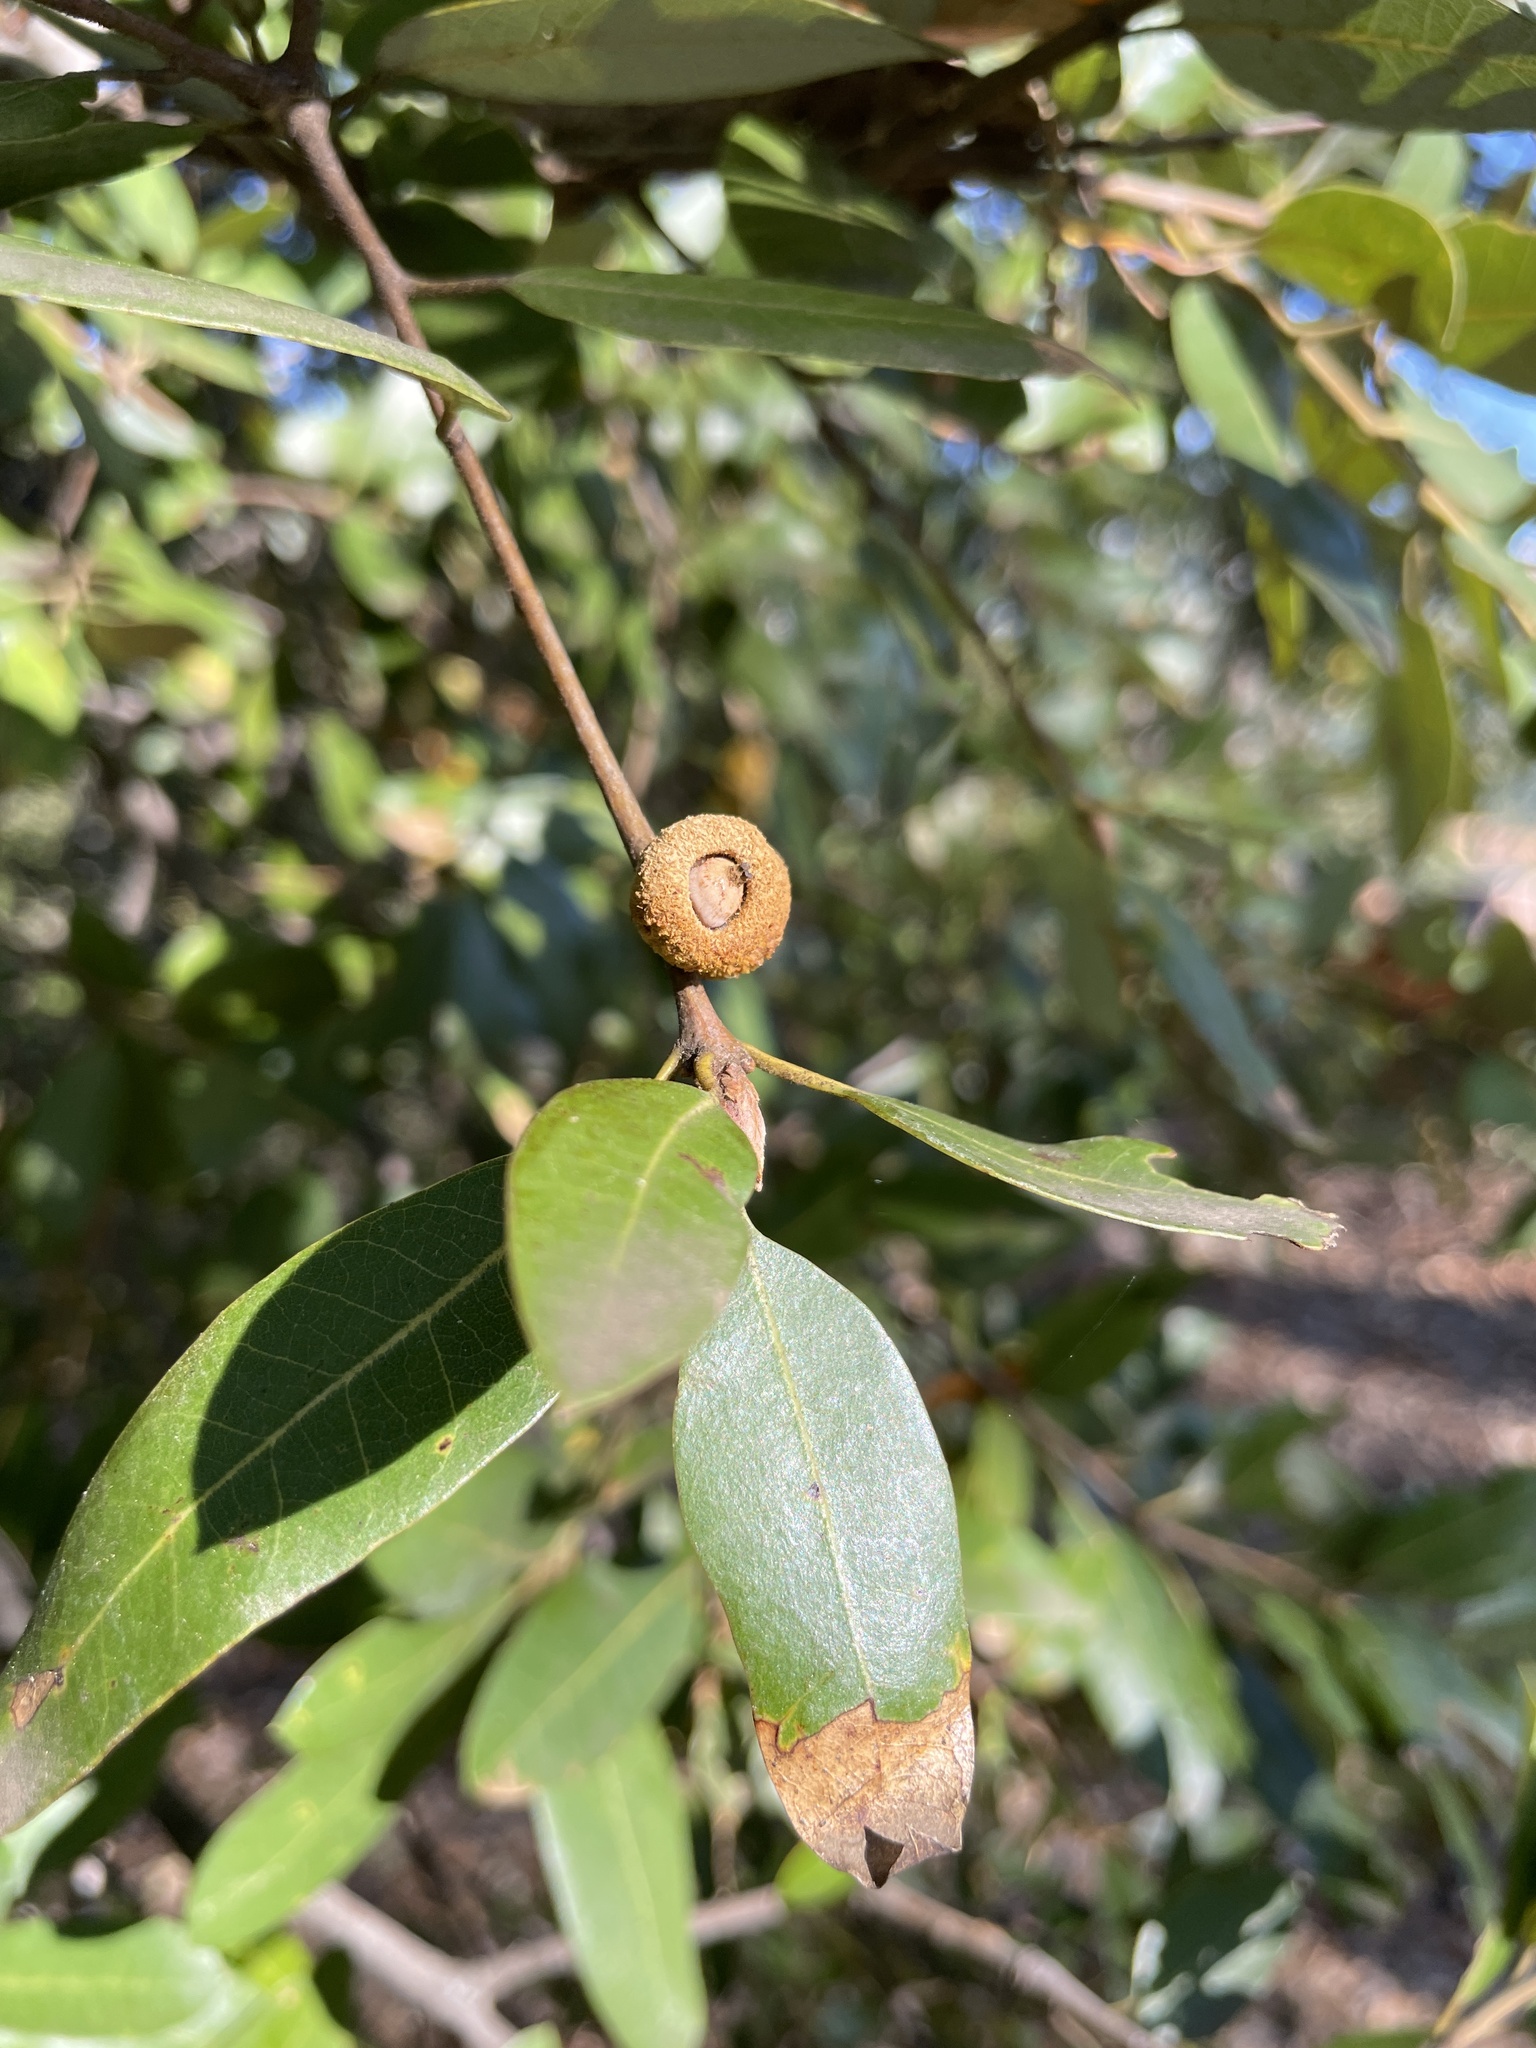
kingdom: Plantae
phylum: Tracheophyta
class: Magnoliopsida
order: Fagales
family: Fagaceae
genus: Quercus
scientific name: Quercus chrysolepis
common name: Canyon live oak
